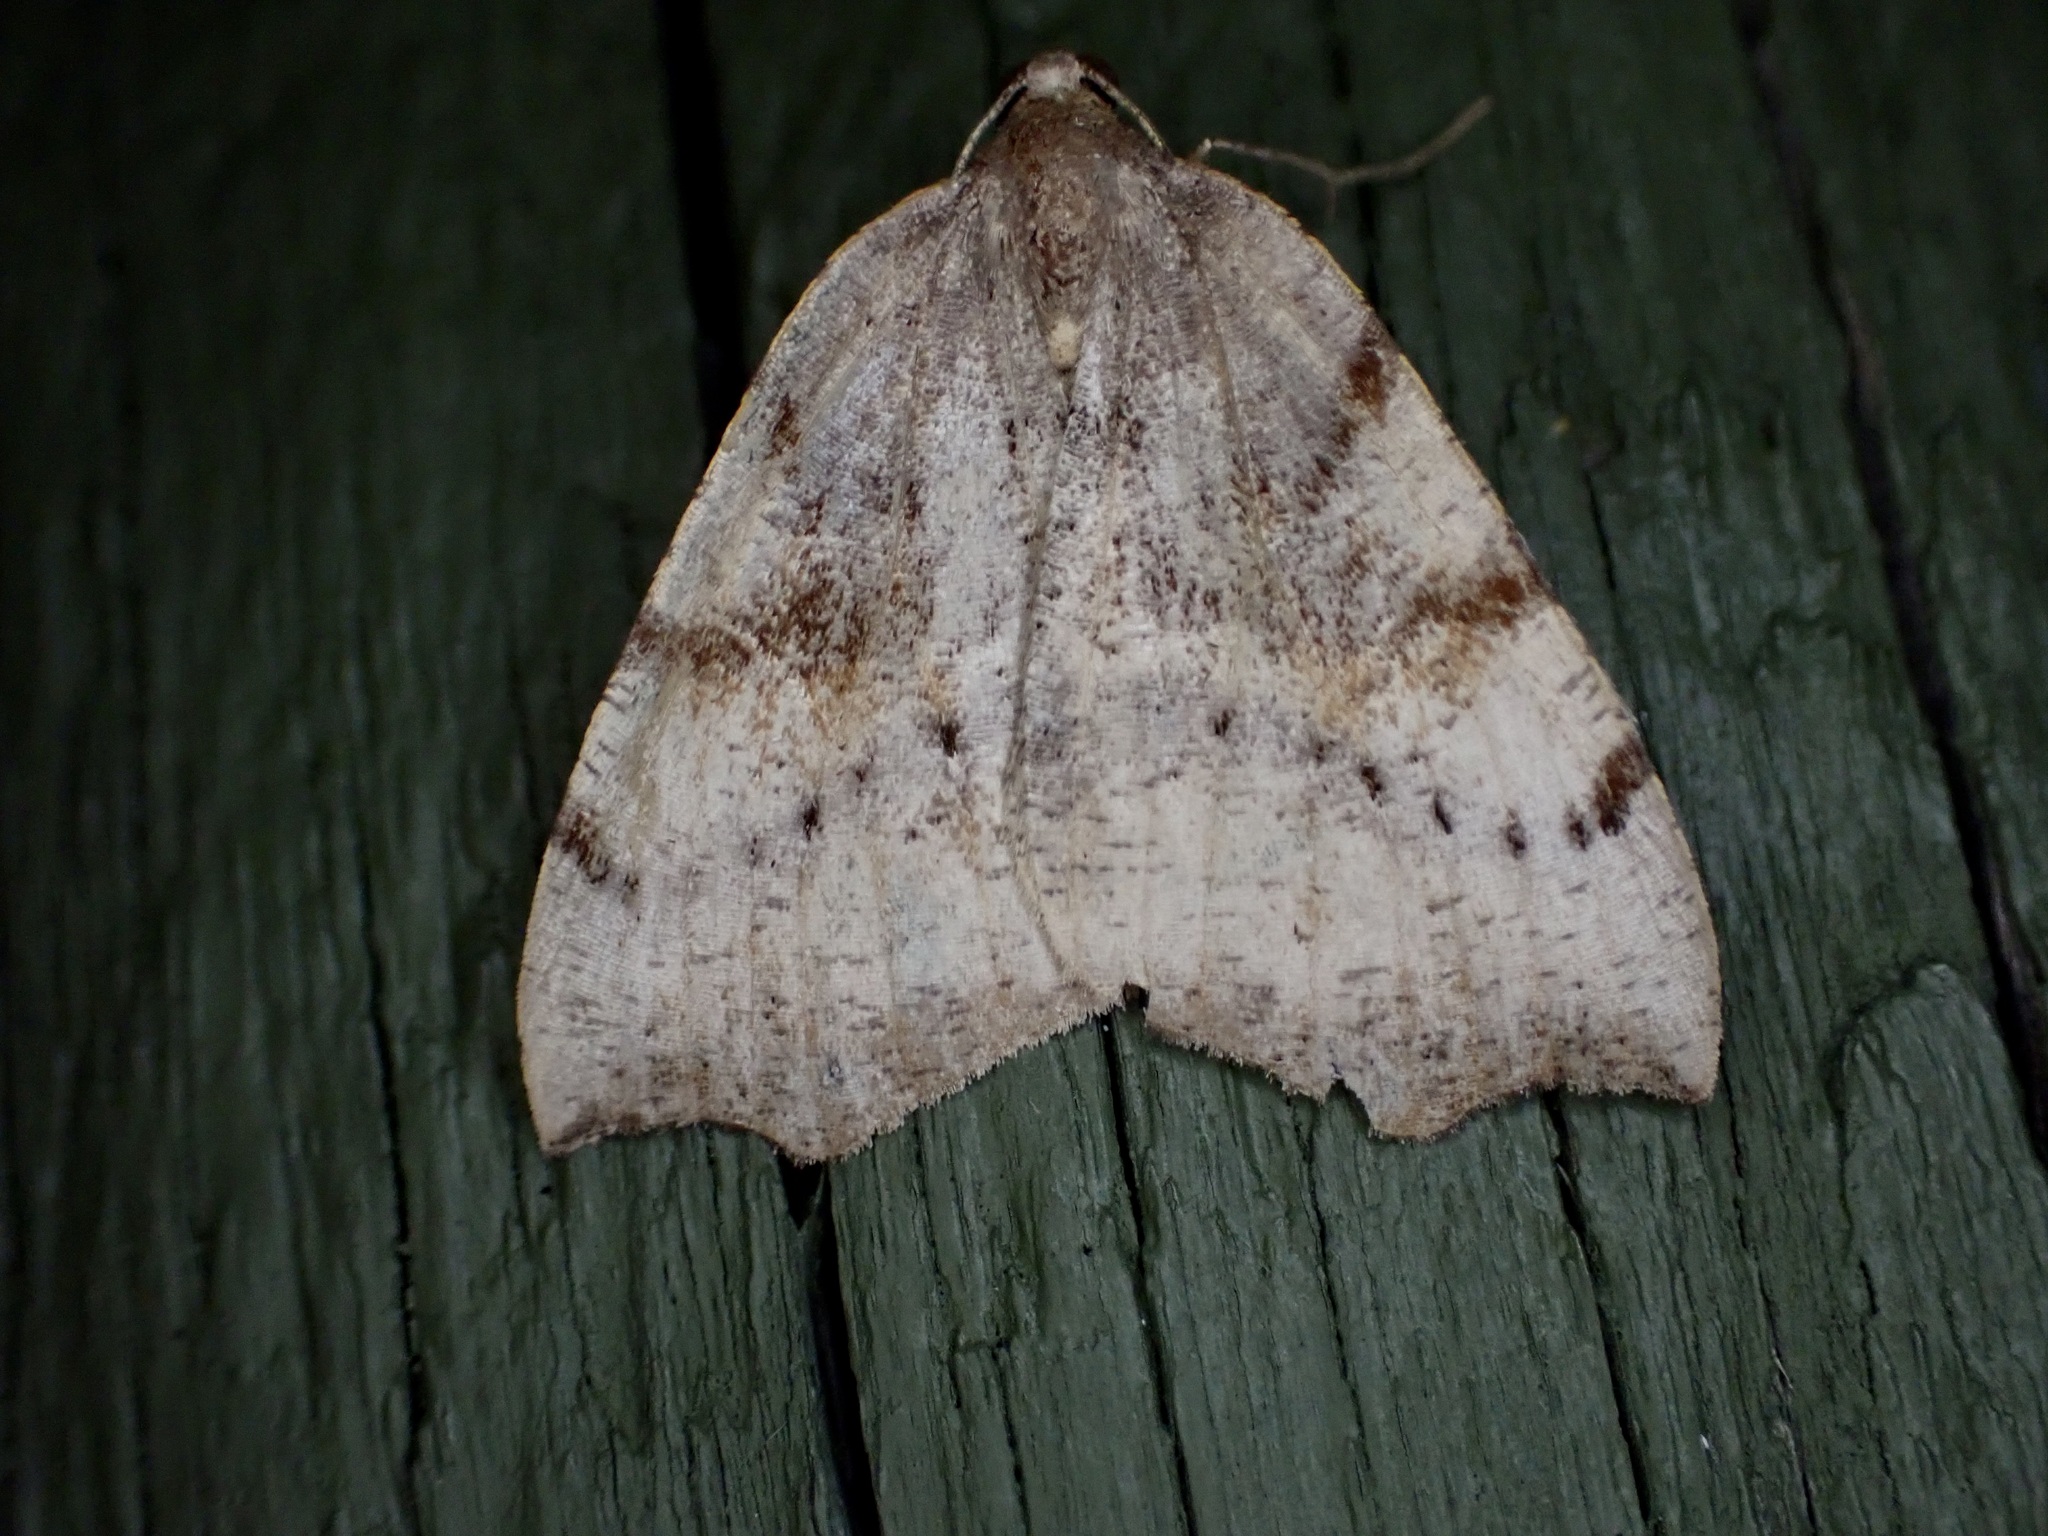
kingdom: Animalia
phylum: Arthropoda
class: Insecta
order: Lepidoptera
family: Geometridae
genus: Sestra
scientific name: Sestra flexata
